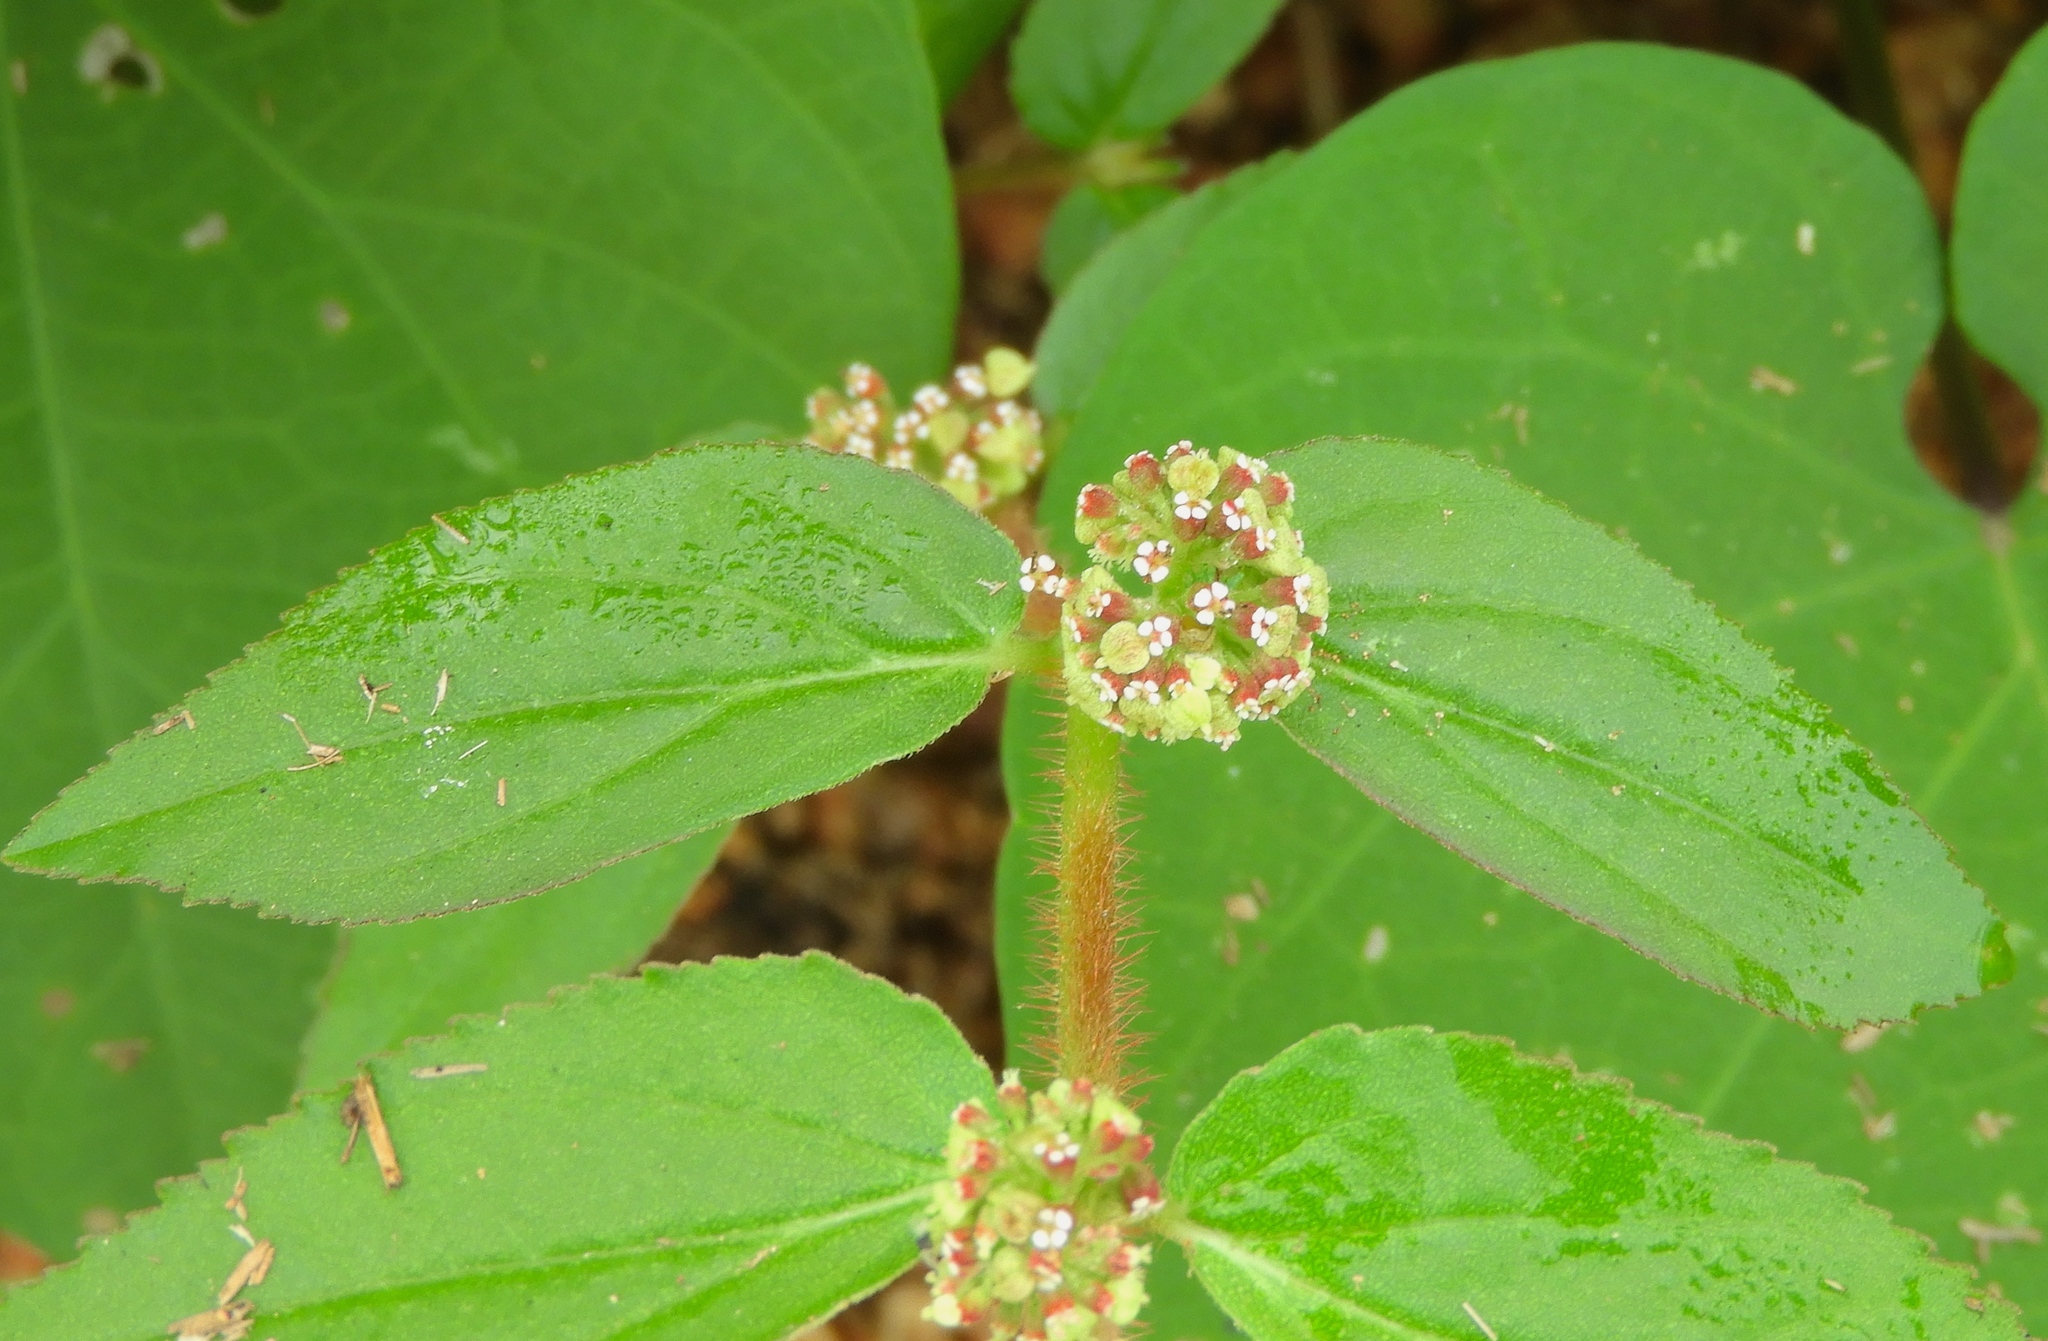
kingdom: Plantae
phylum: Tracheophyta
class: Magnoliopsida
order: Malpighiales
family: Euphorbiaceae
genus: Euphorbia
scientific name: Euphorbia hirta
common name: Pillpod sandmat
